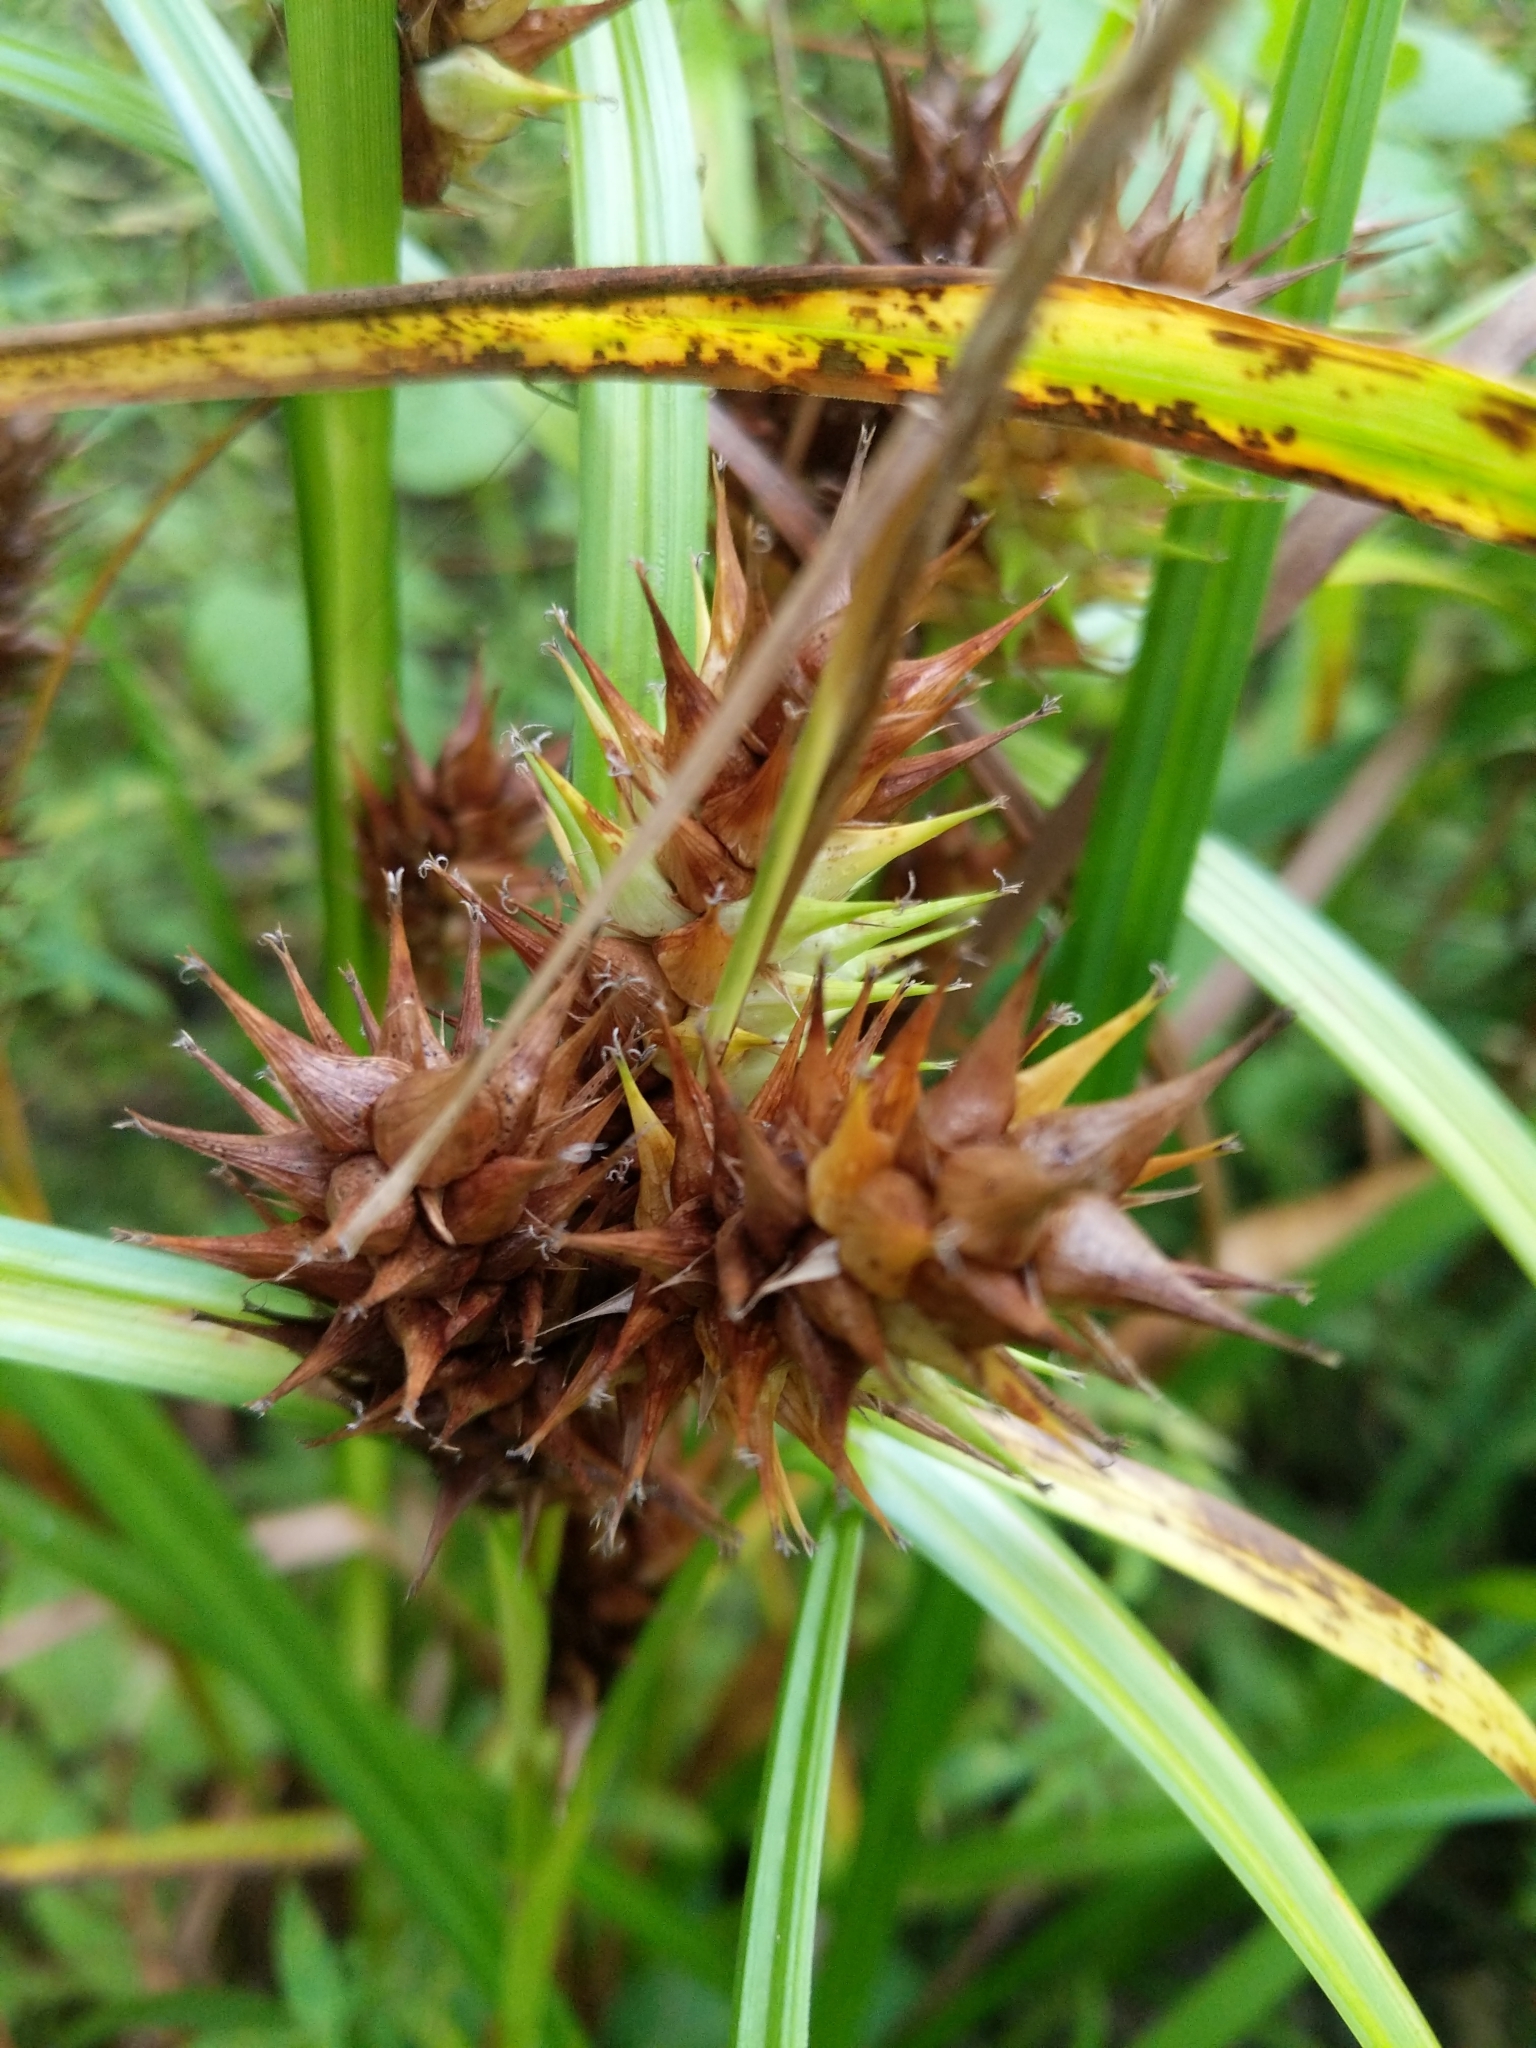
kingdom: Plantae
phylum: Tracheophyta
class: Liliopsida
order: Poales
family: Cyperaceae
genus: Carex
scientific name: Carex lupulina
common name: Hop sedge
